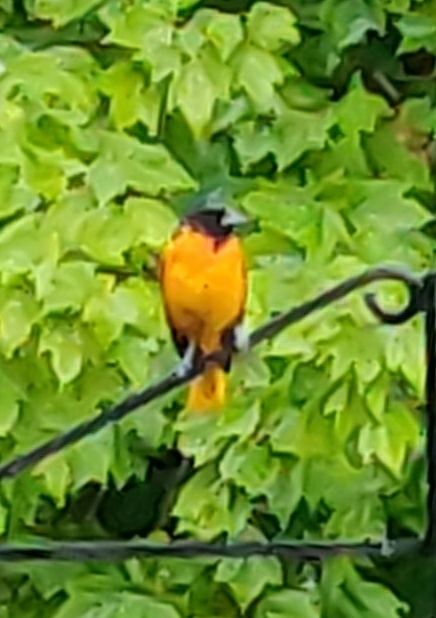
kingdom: Animalia
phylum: Chordata
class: Aves
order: Passeriformes
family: Icteridae
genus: Icterus
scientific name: Icterus galbula
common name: Baltimore oriole
